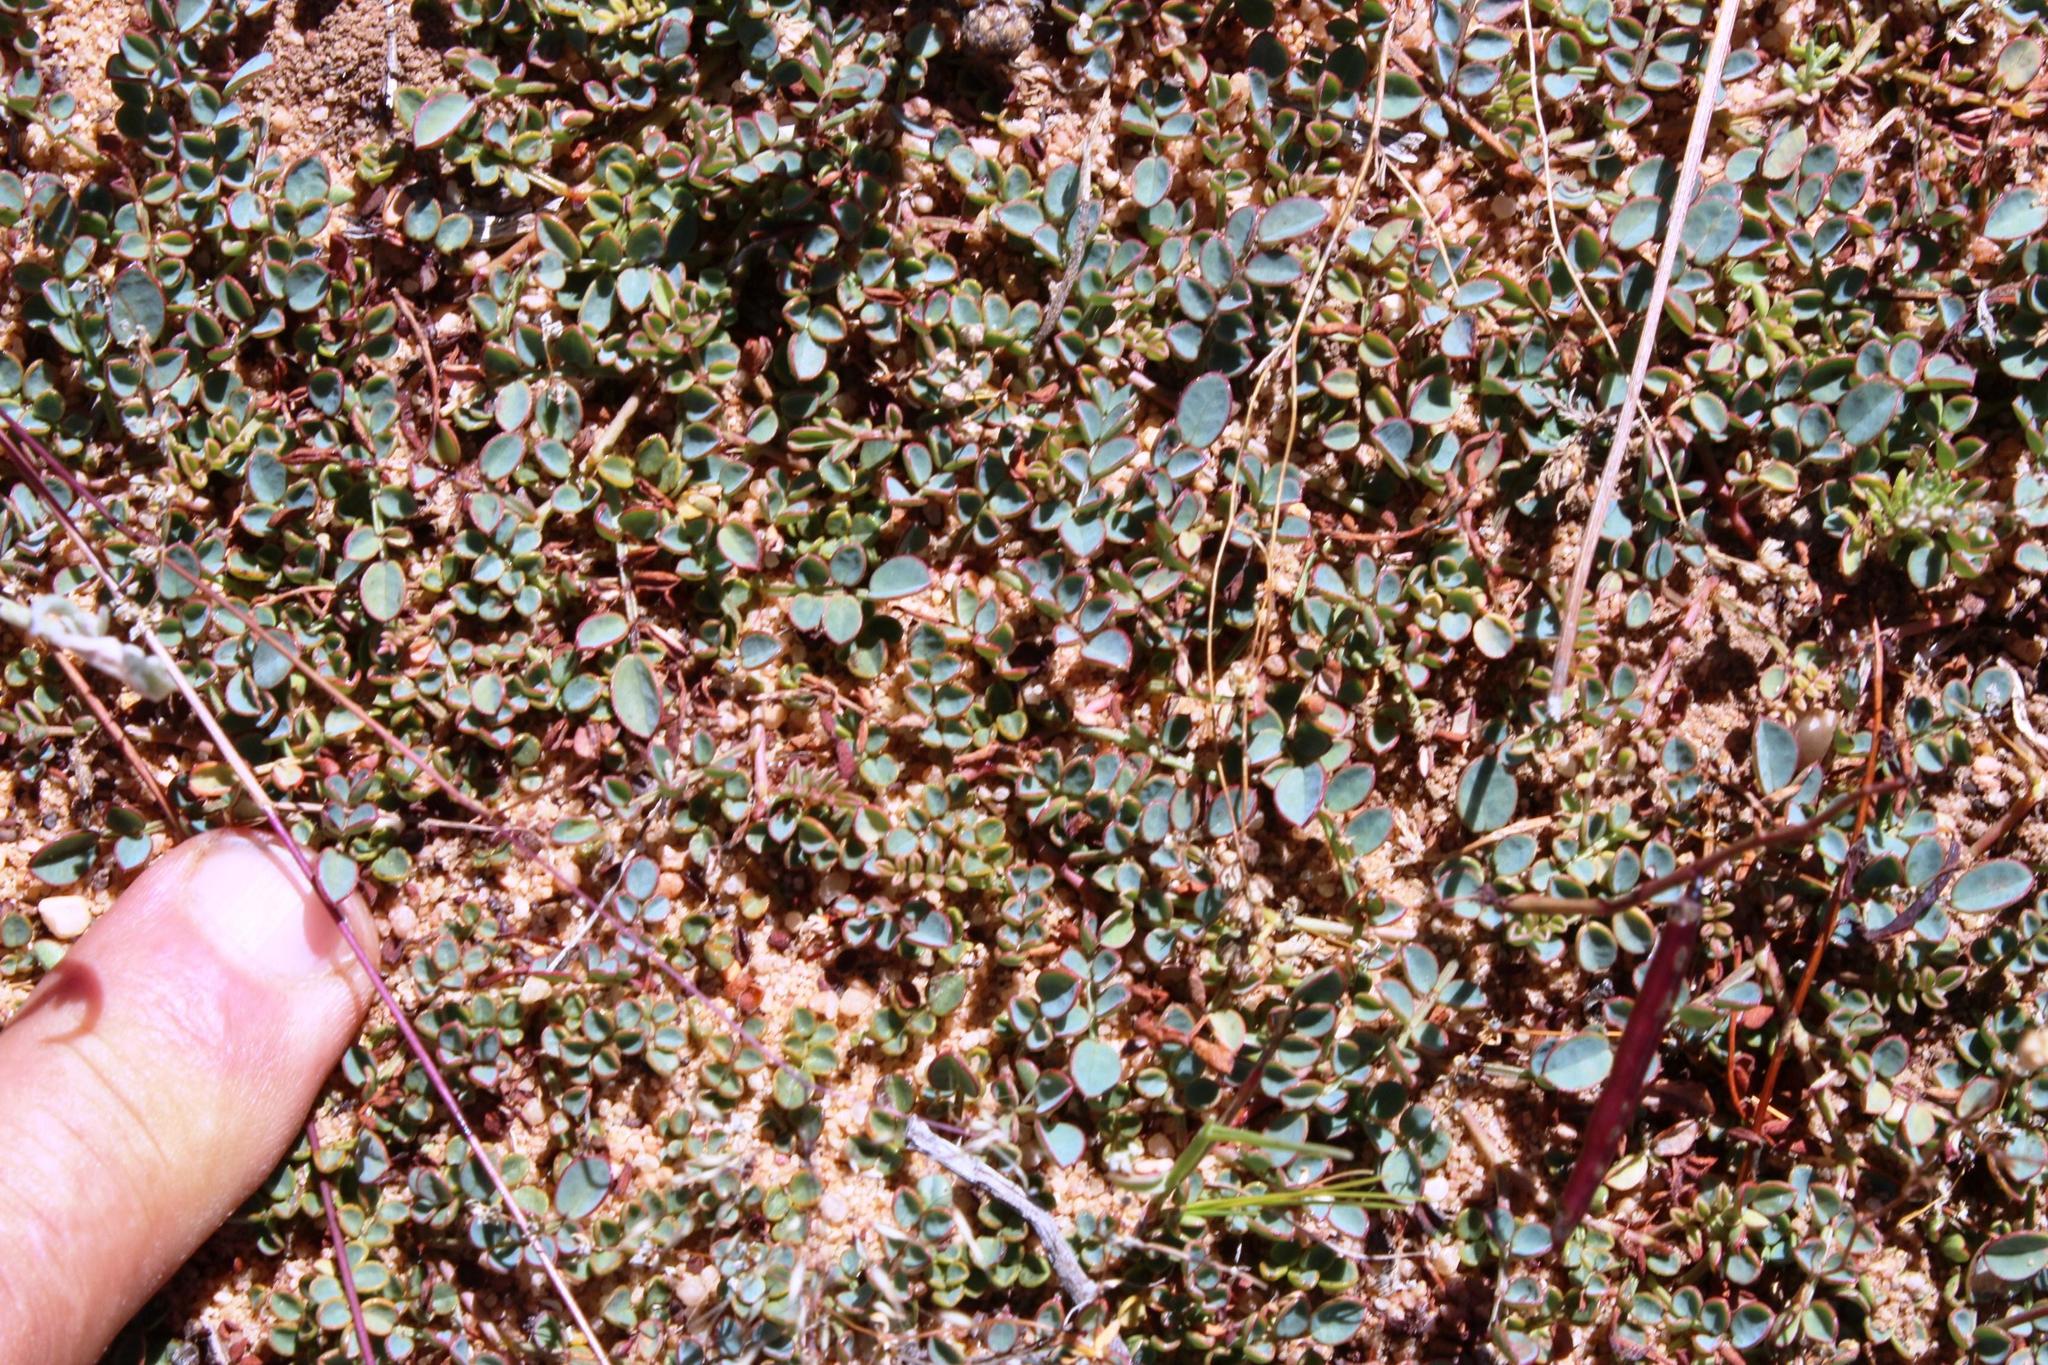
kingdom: Plantae
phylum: Tracheophyta
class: Magnoliopsida
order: Fabales
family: Fabaceae
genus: Indigofera
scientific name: Indigofera humifusa
